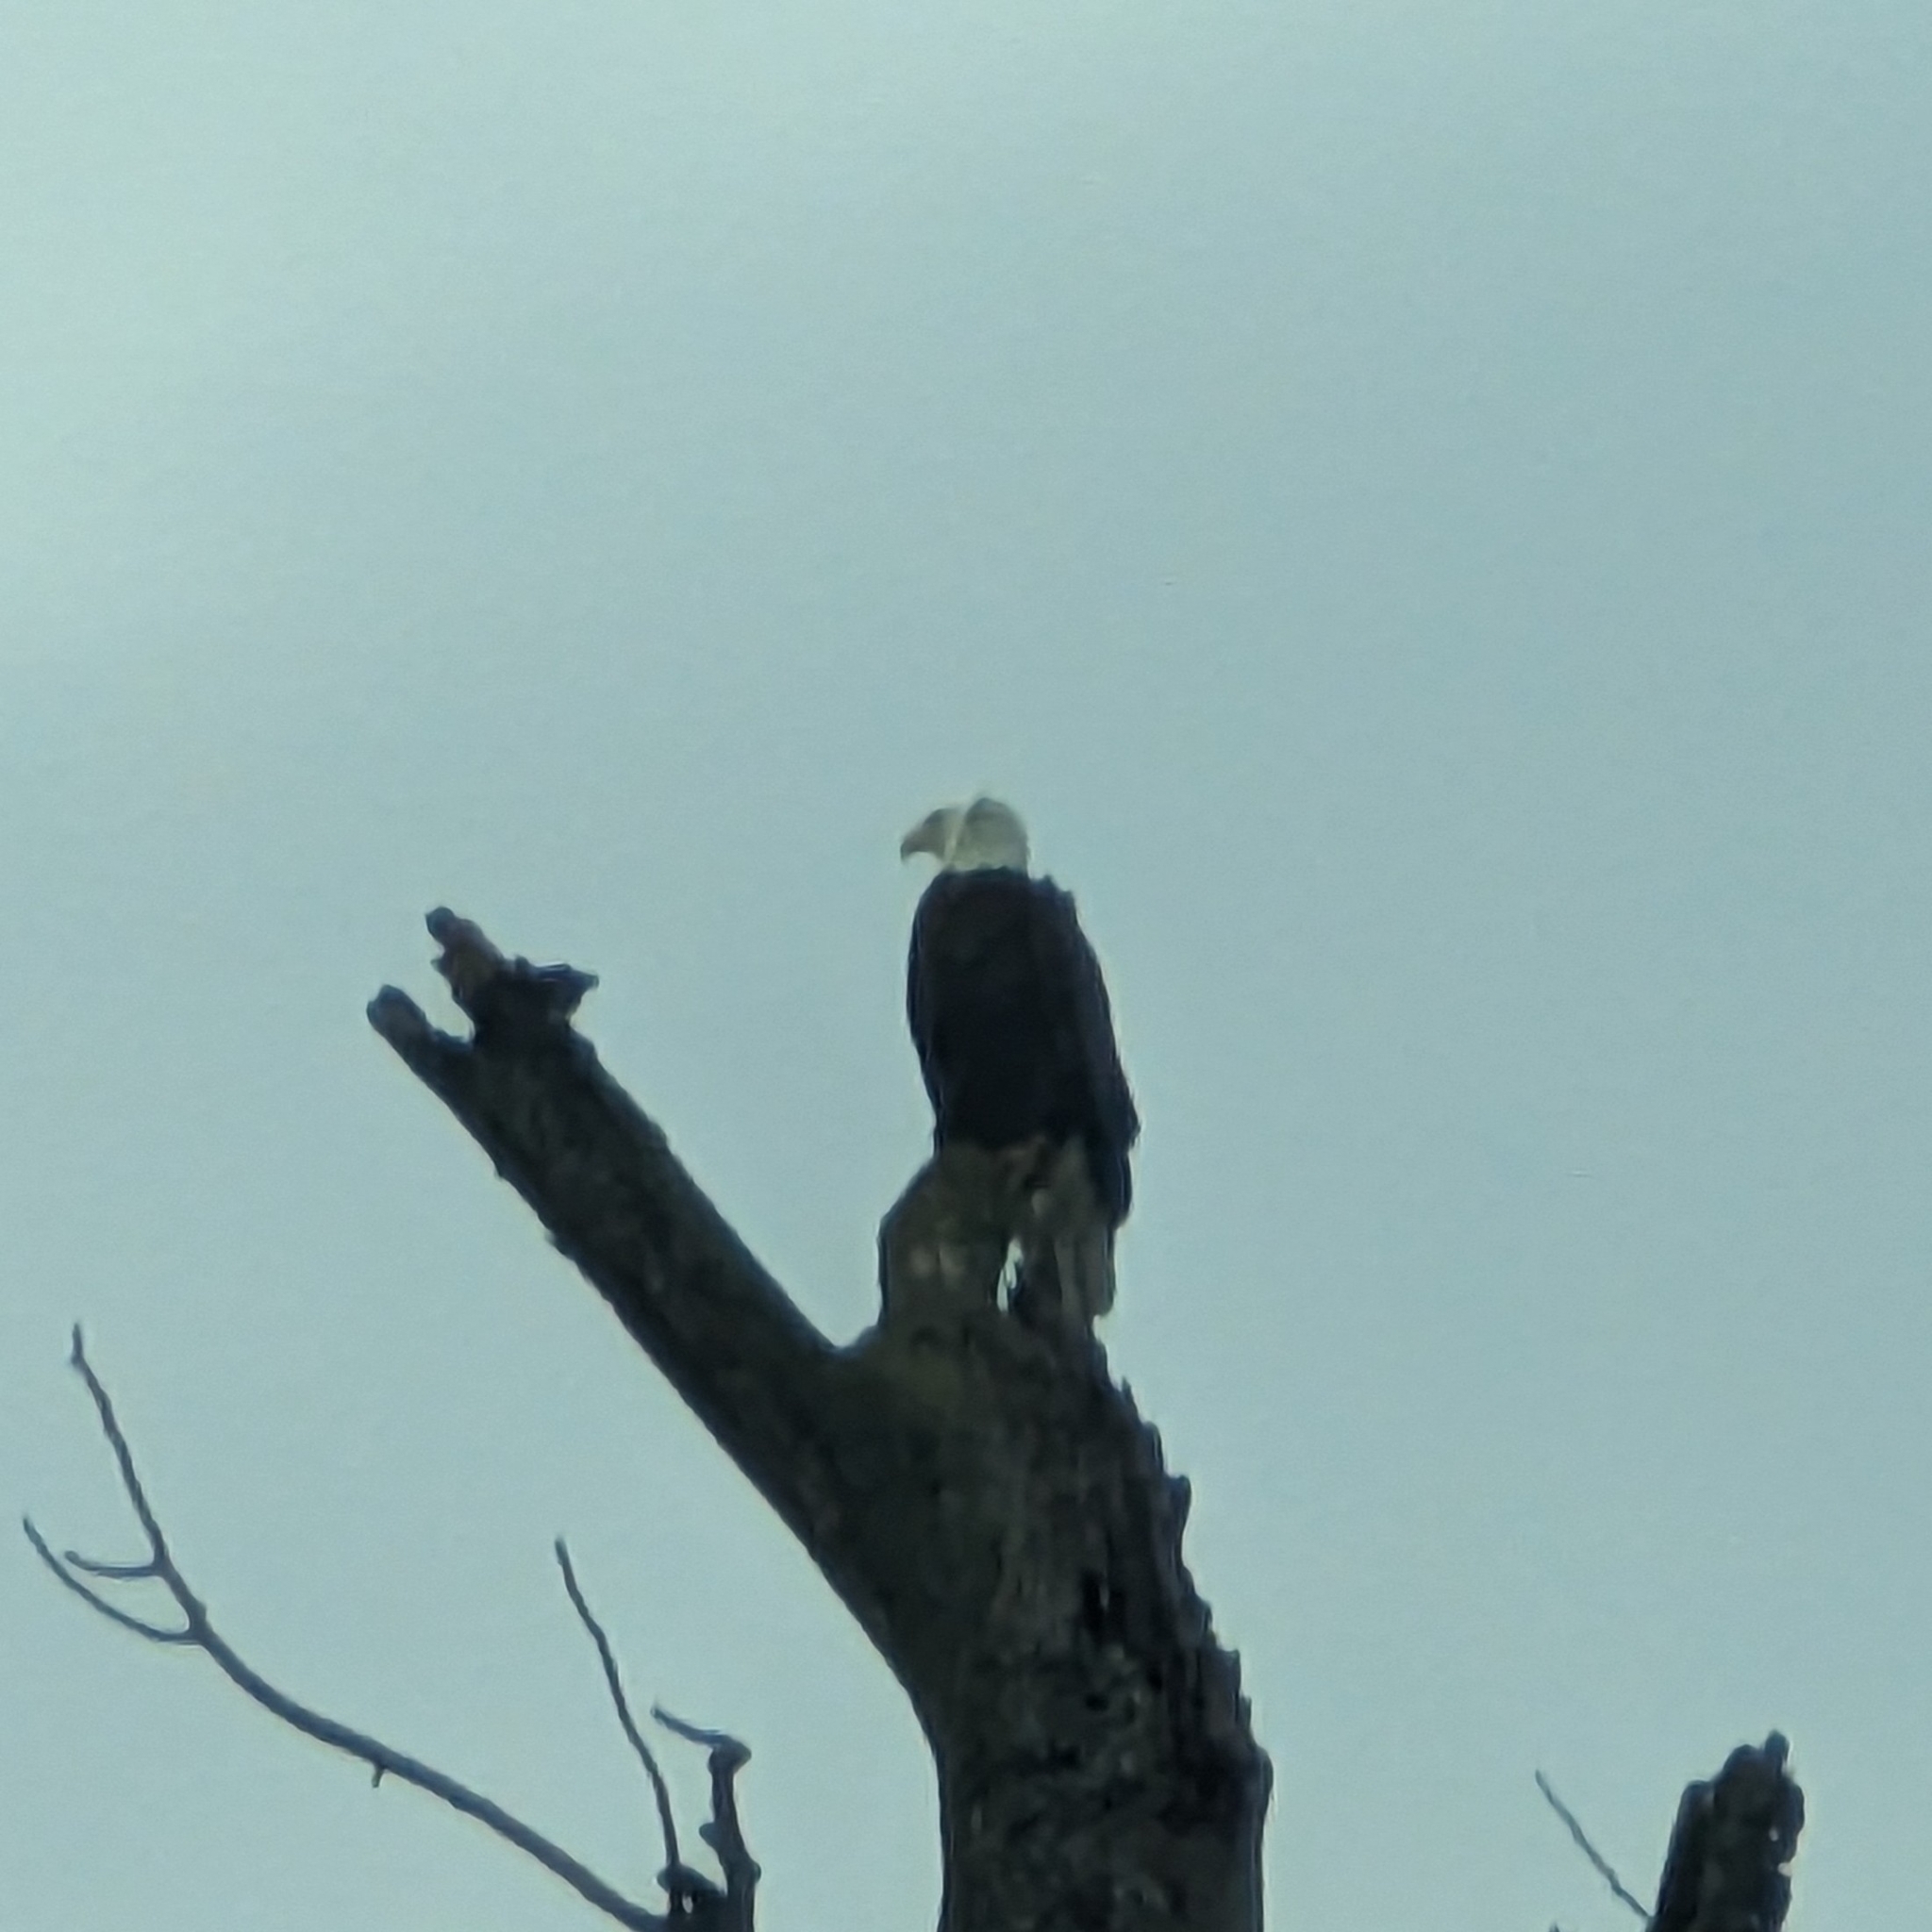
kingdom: Animalia
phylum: Chordata
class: Aves
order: Accipitriformes
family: Accipitridae
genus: Haliaeetus
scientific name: Haliaeetus leucocephalus
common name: Bald eagle
